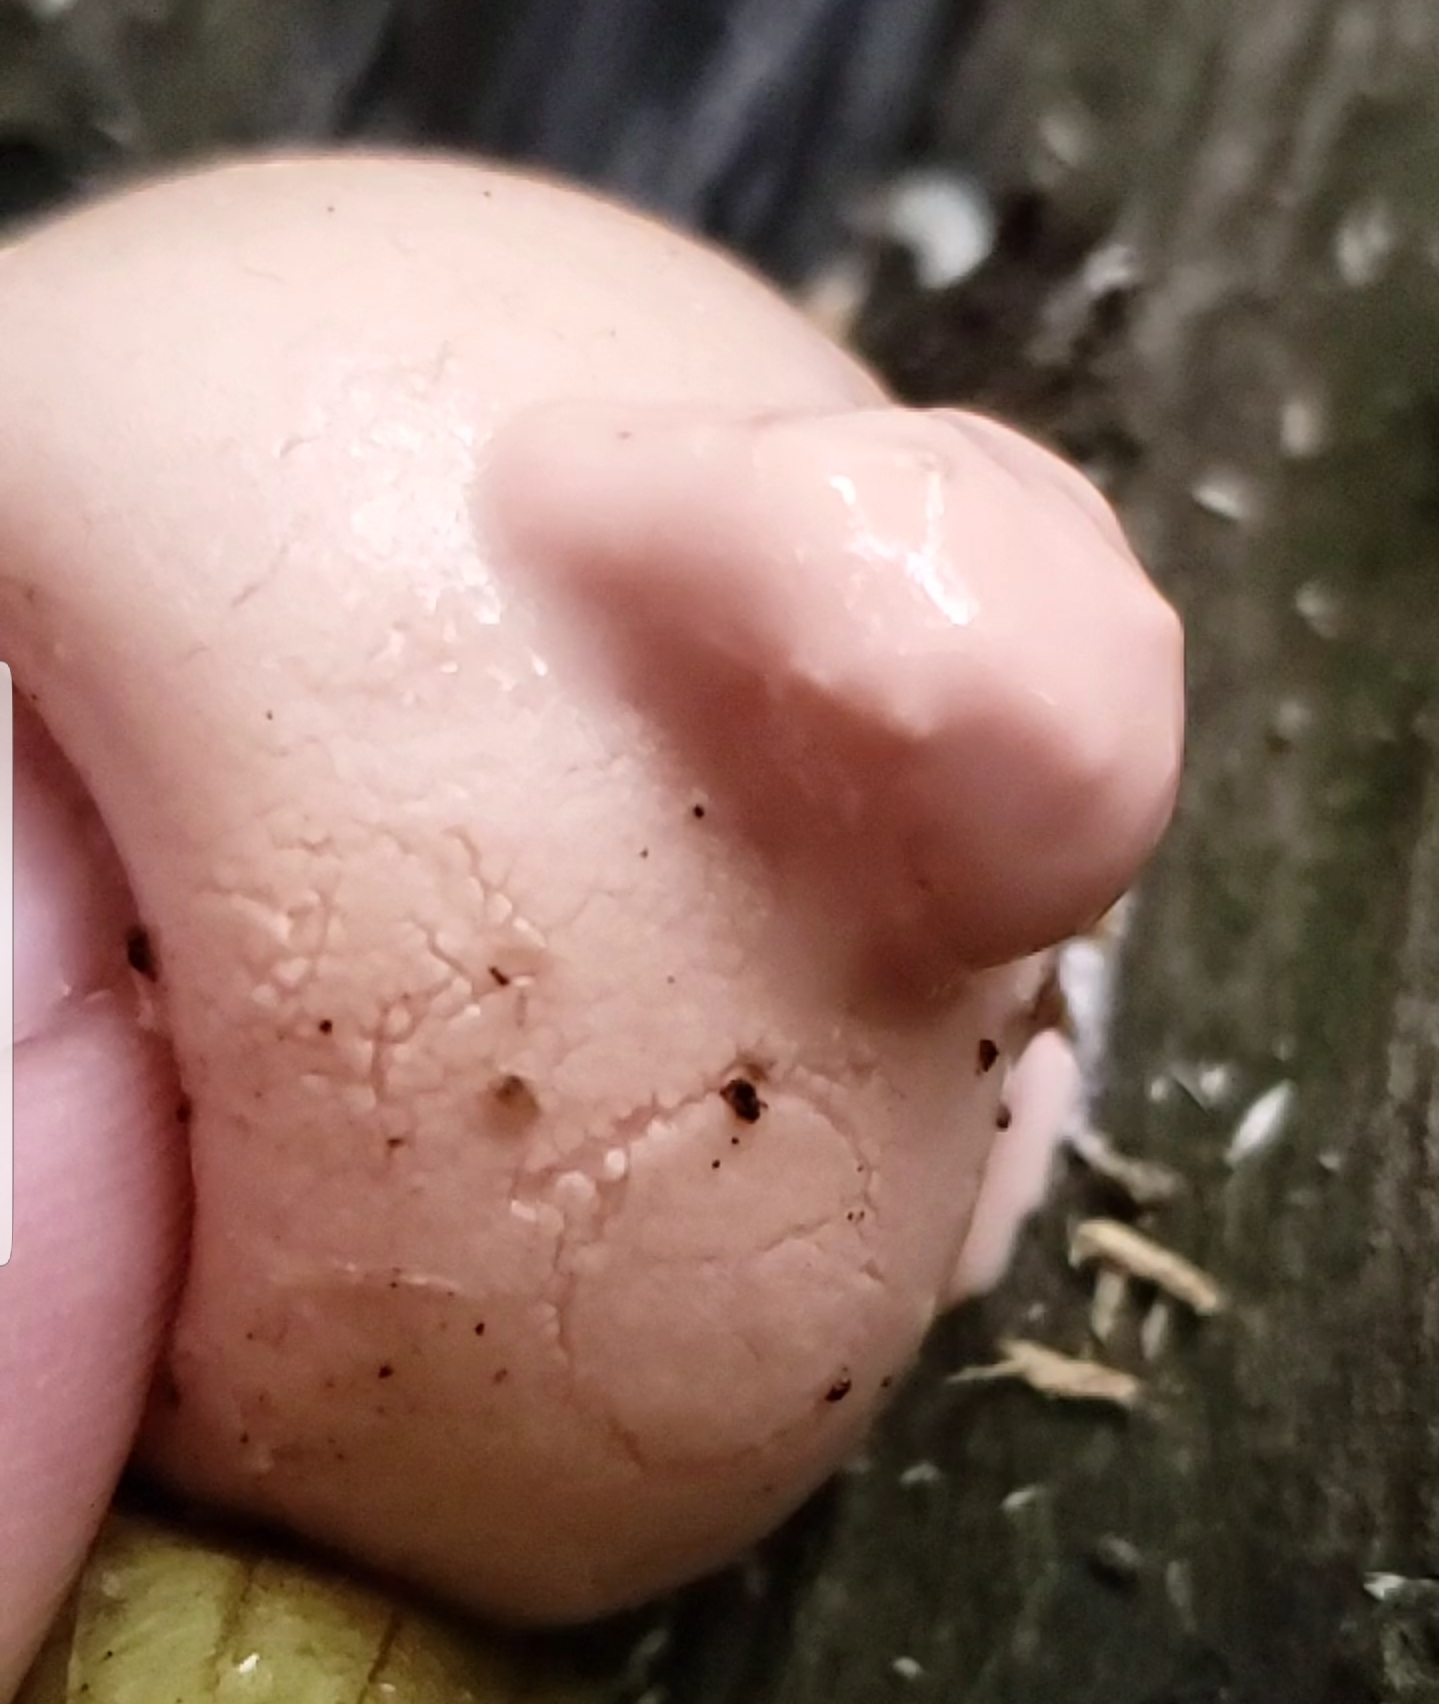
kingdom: Protozoa
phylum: Mycetozoa
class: Myxomycetes
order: Cribrariales
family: Tubiferaceae
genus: Lycogala
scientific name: Lycogala epidendrum
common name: Wolf's milk
